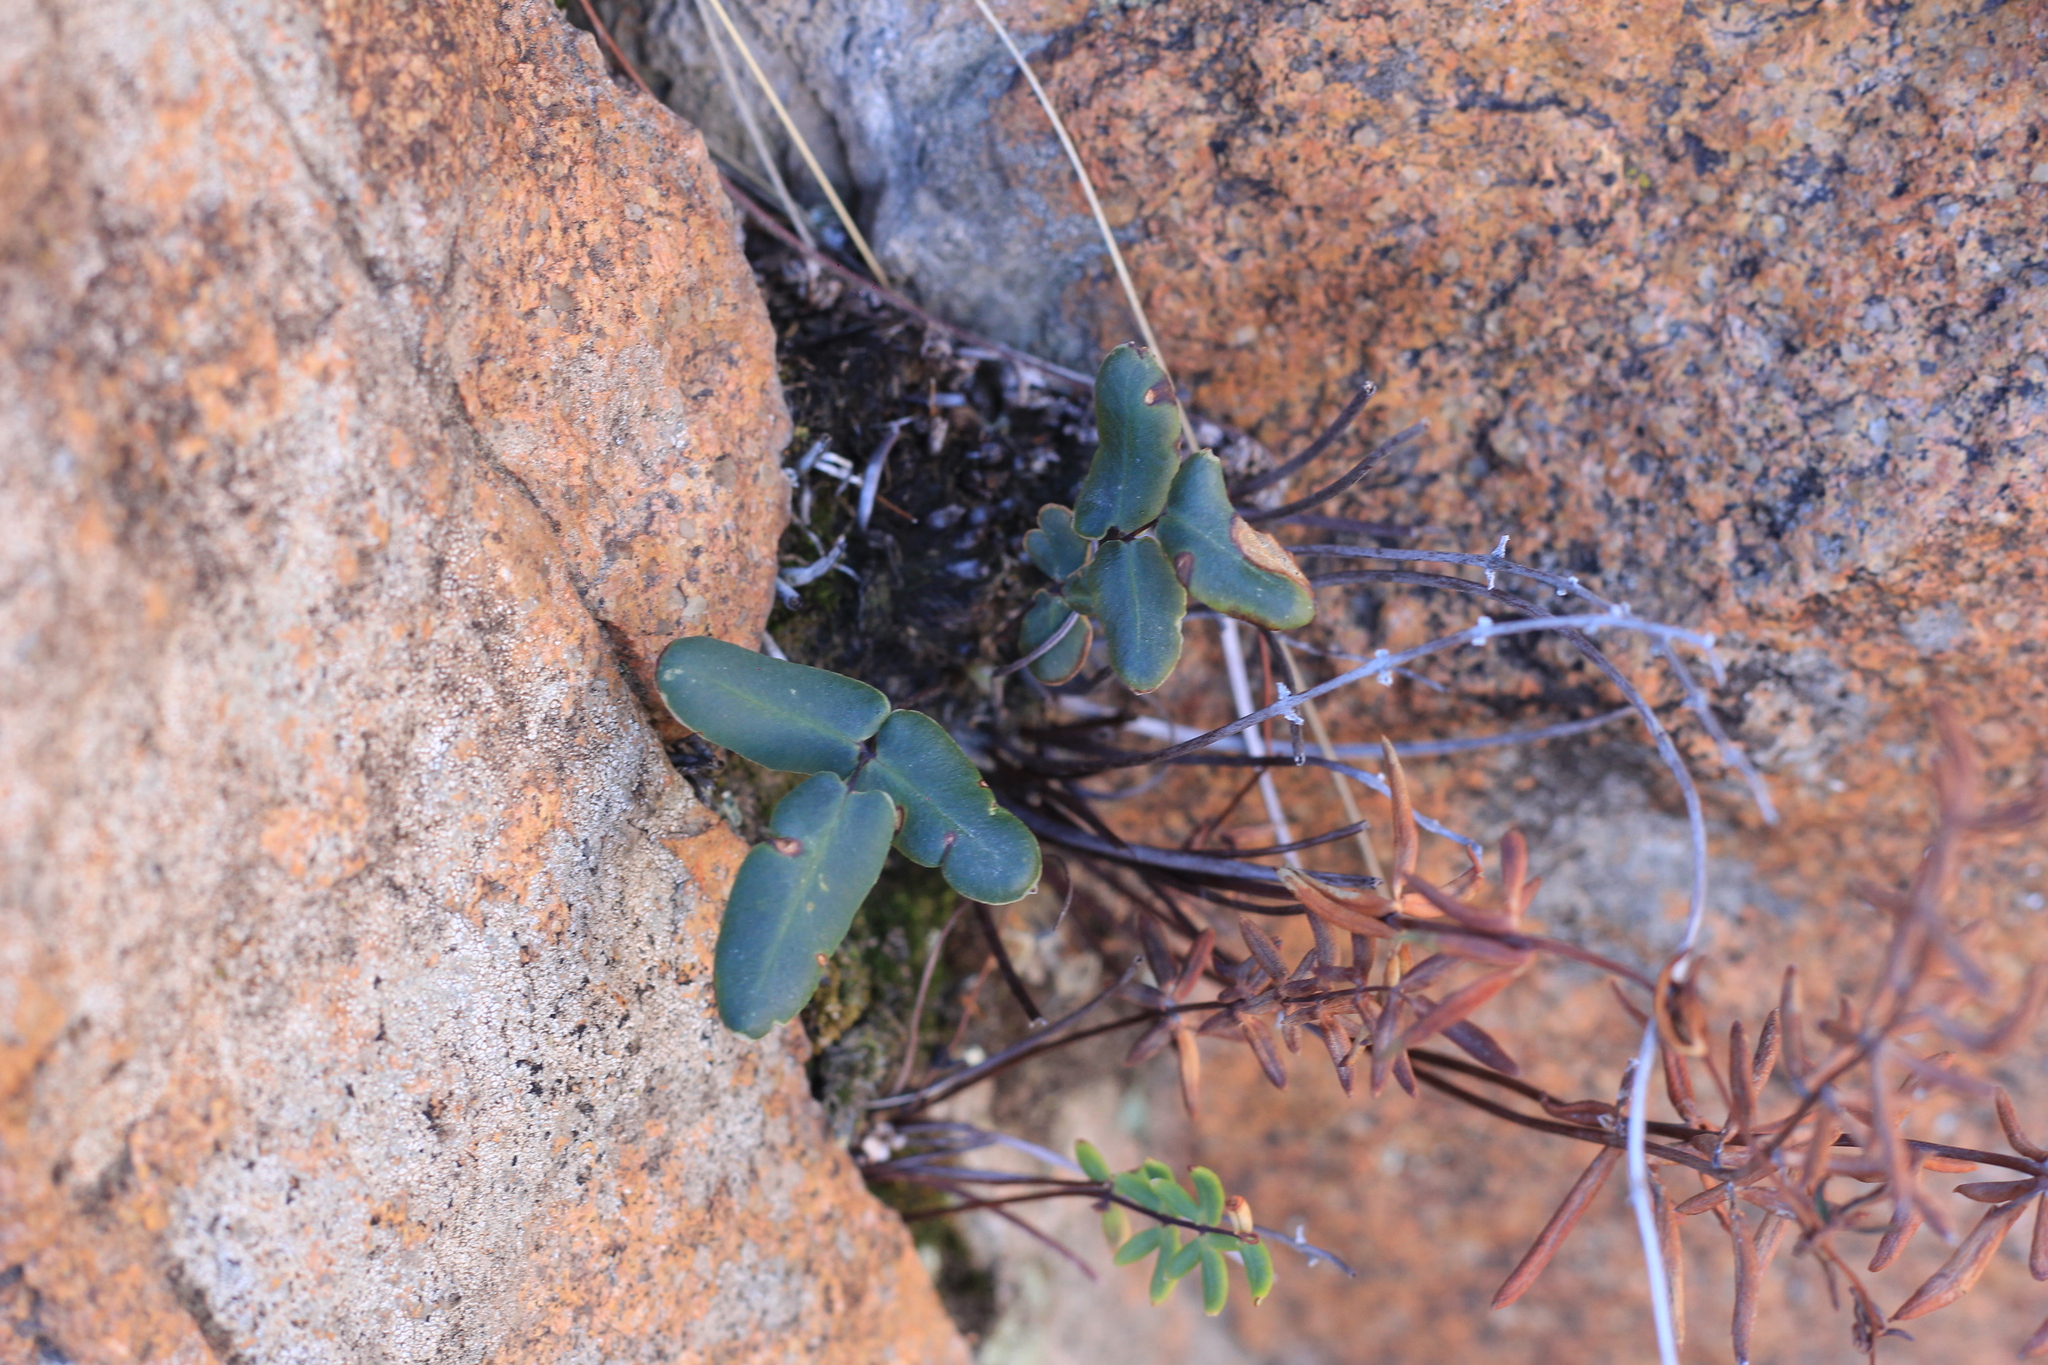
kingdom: Plantae
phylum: Tracheophyta
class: Polypodiopsida
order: Polypodiales
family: Pteridaceae
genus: Pellaea
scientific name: Pellaea ternifolia
